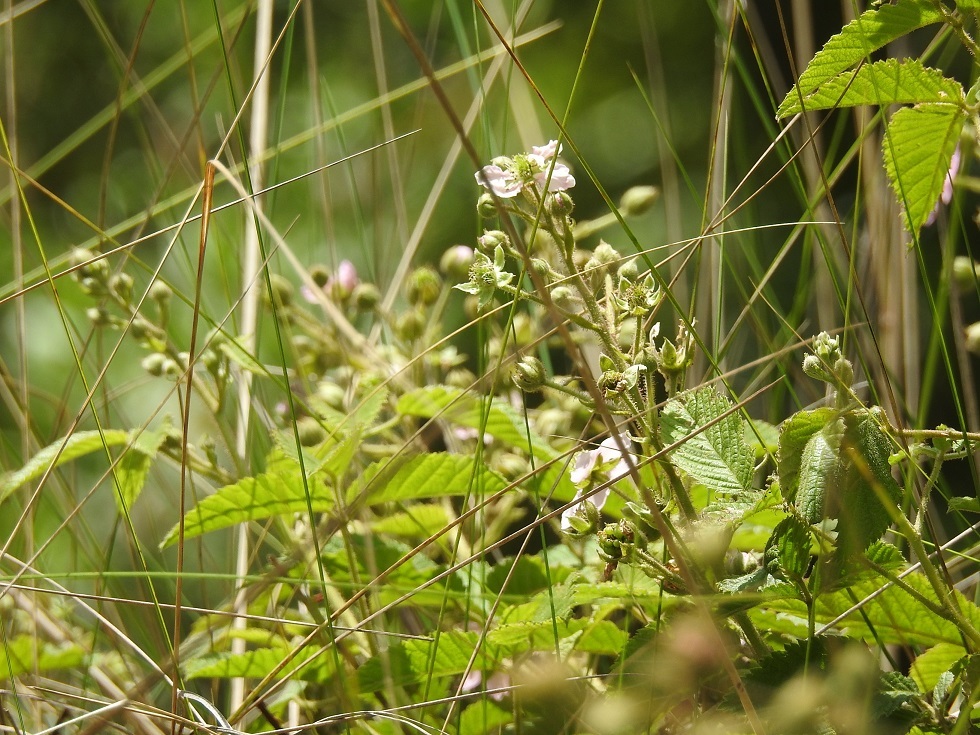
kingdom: Plantae
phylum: Tracheophyta
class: Magnoliopsida
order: Rosales
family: Rosaceae
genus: Rubus
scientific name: Rubus adenotrichos
